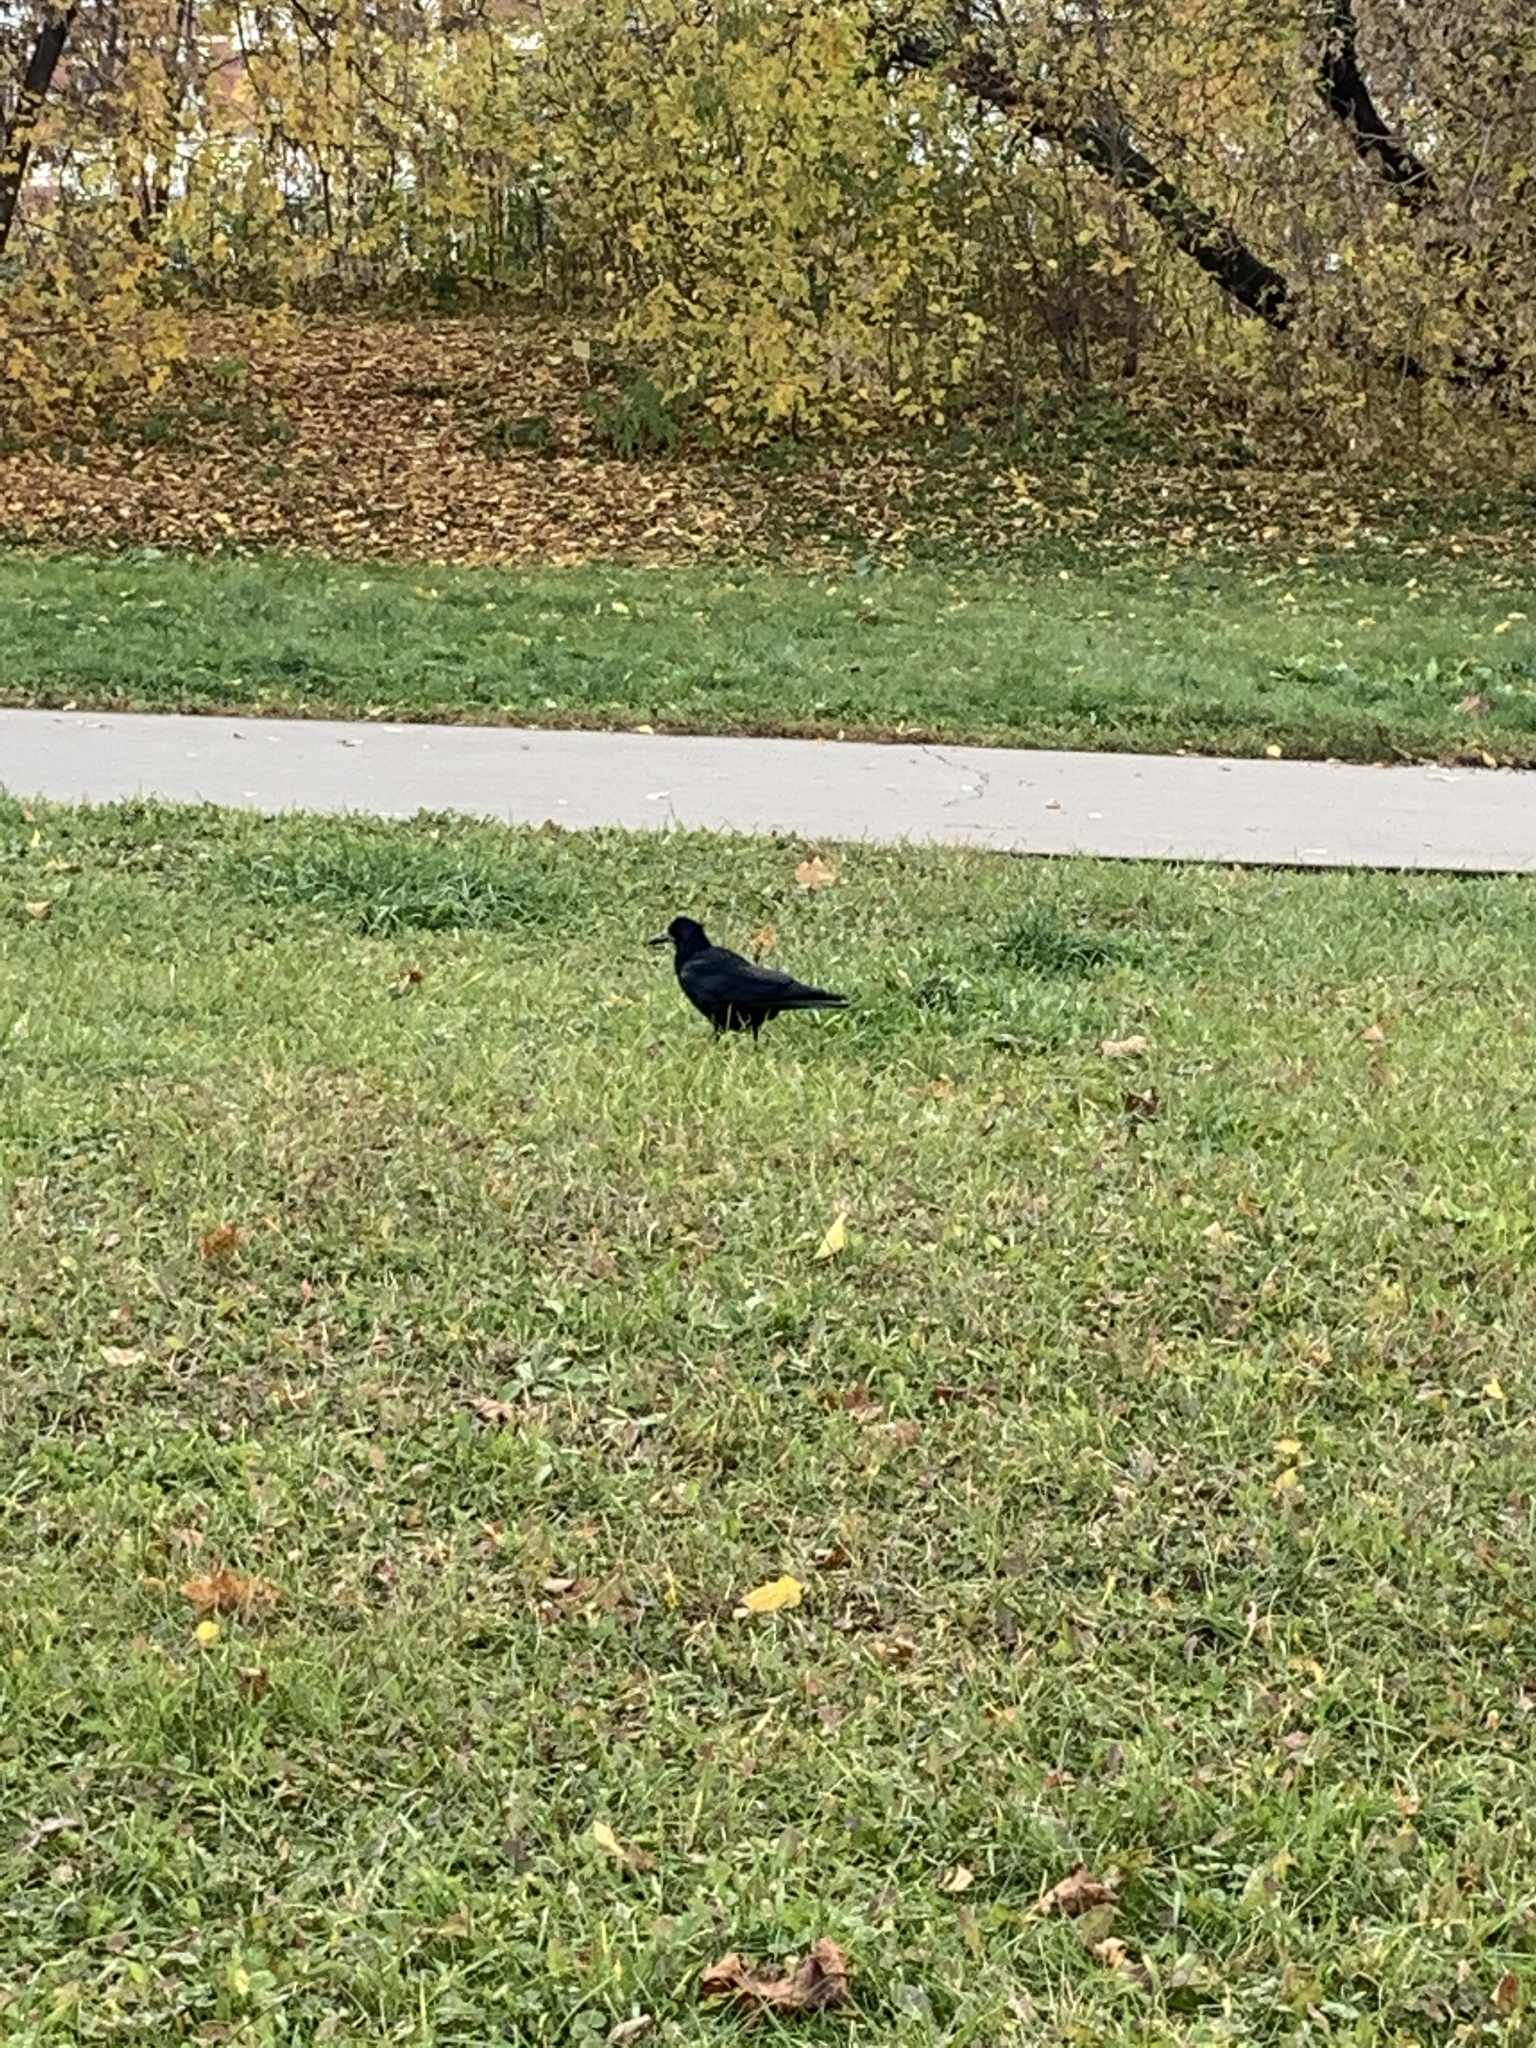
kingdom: Animalia
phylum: Chordata
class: Aves
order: Passeriformes
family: Corvidae
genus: Corvus
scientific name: Corvus frugilegus
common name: Rook
